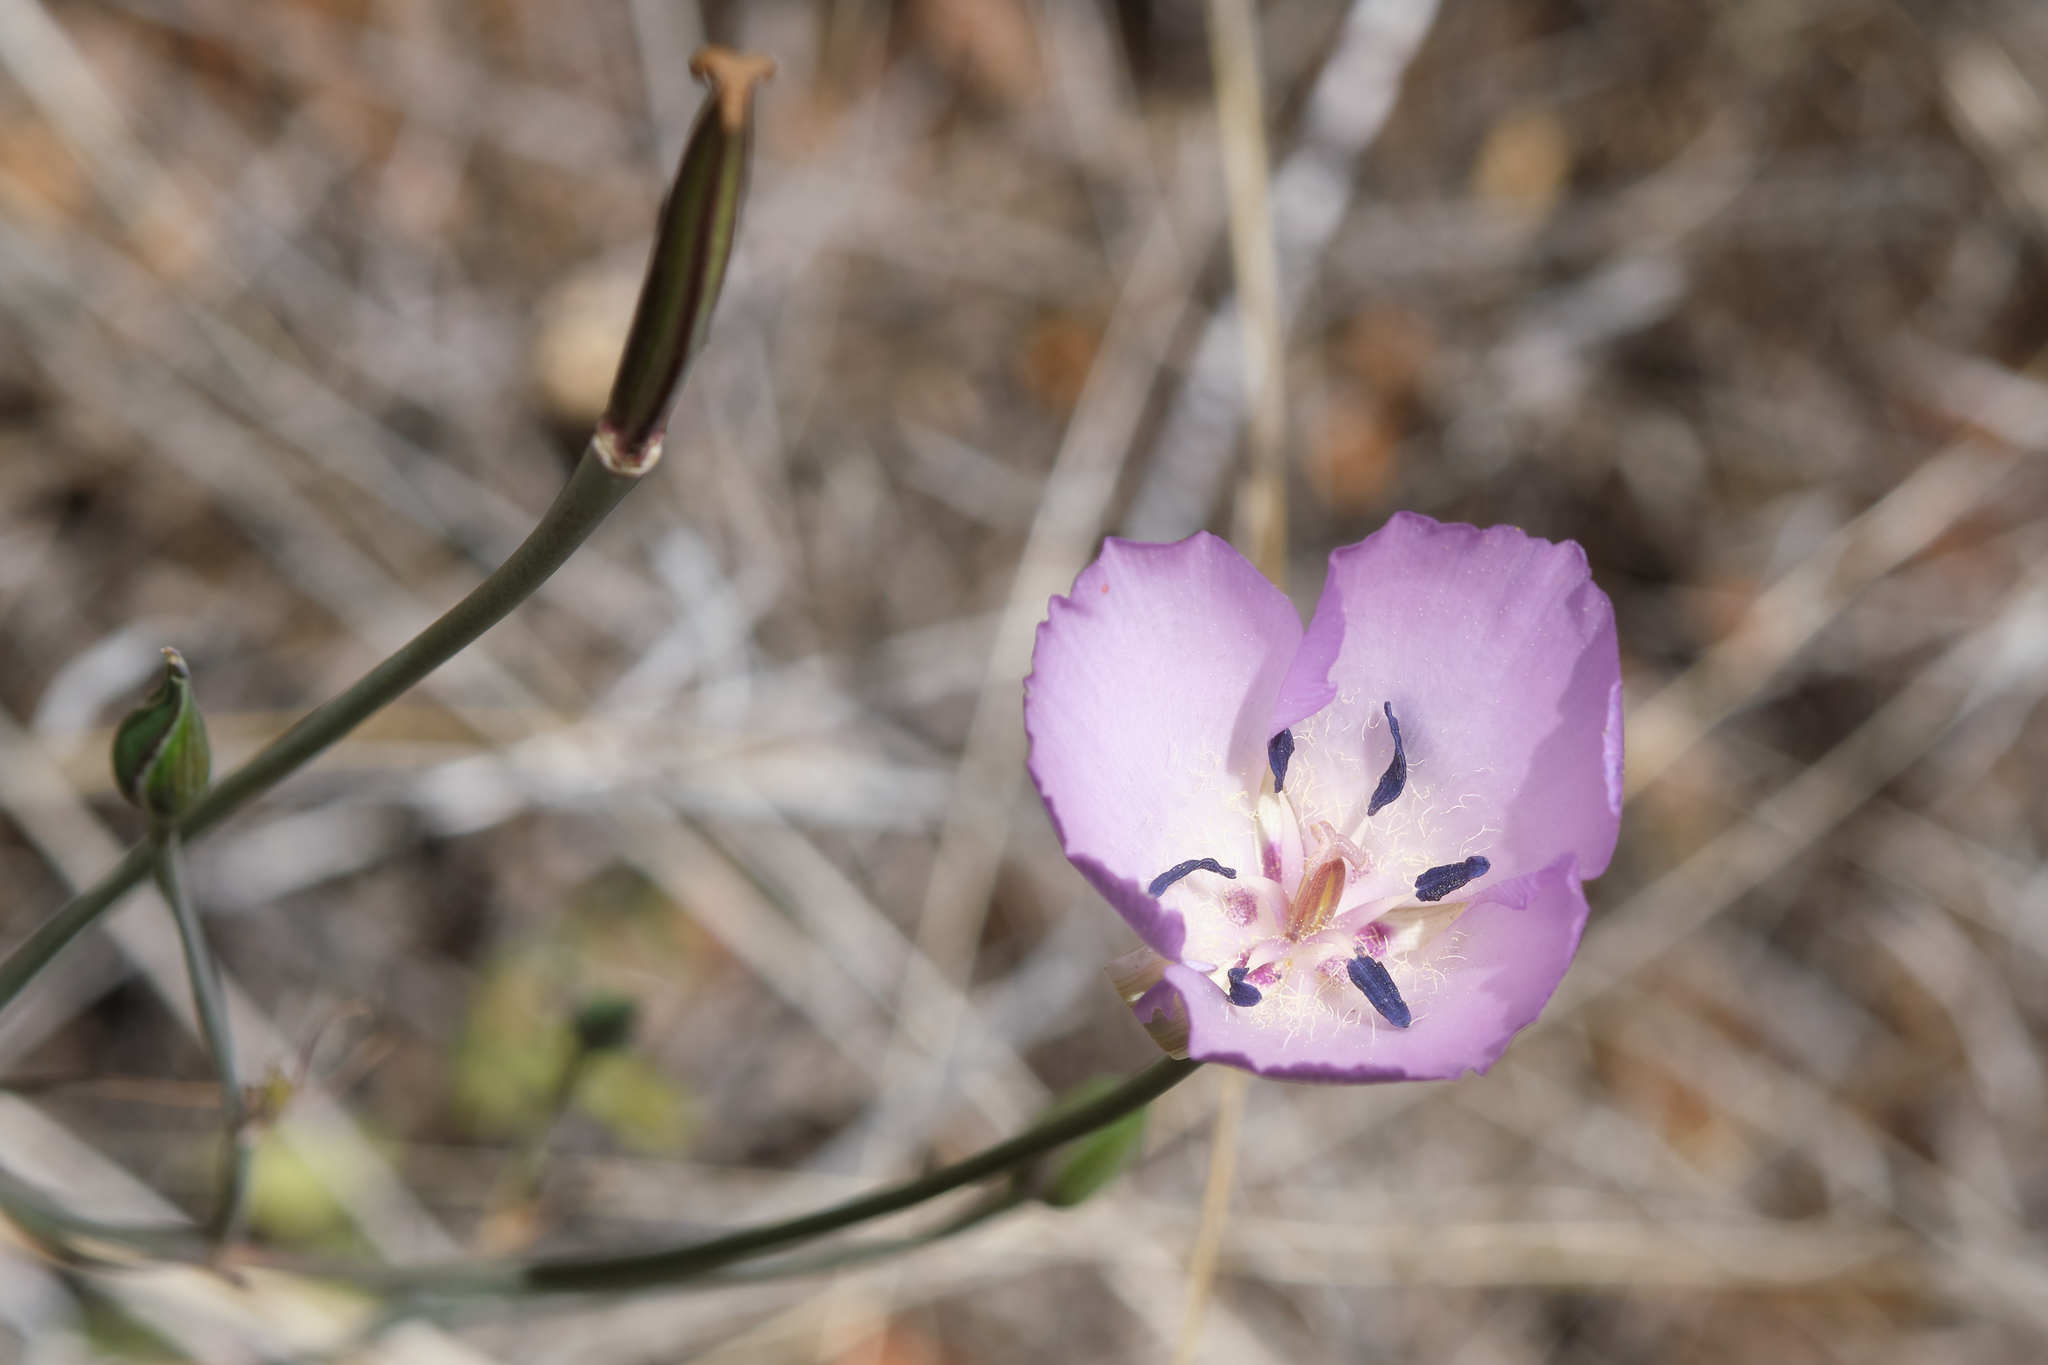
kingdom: Plantae
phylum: Tracheophyta
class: Liliopsida
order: Liliales
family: Liliaceae
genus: Calochortus
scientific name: Calochortus splendens
